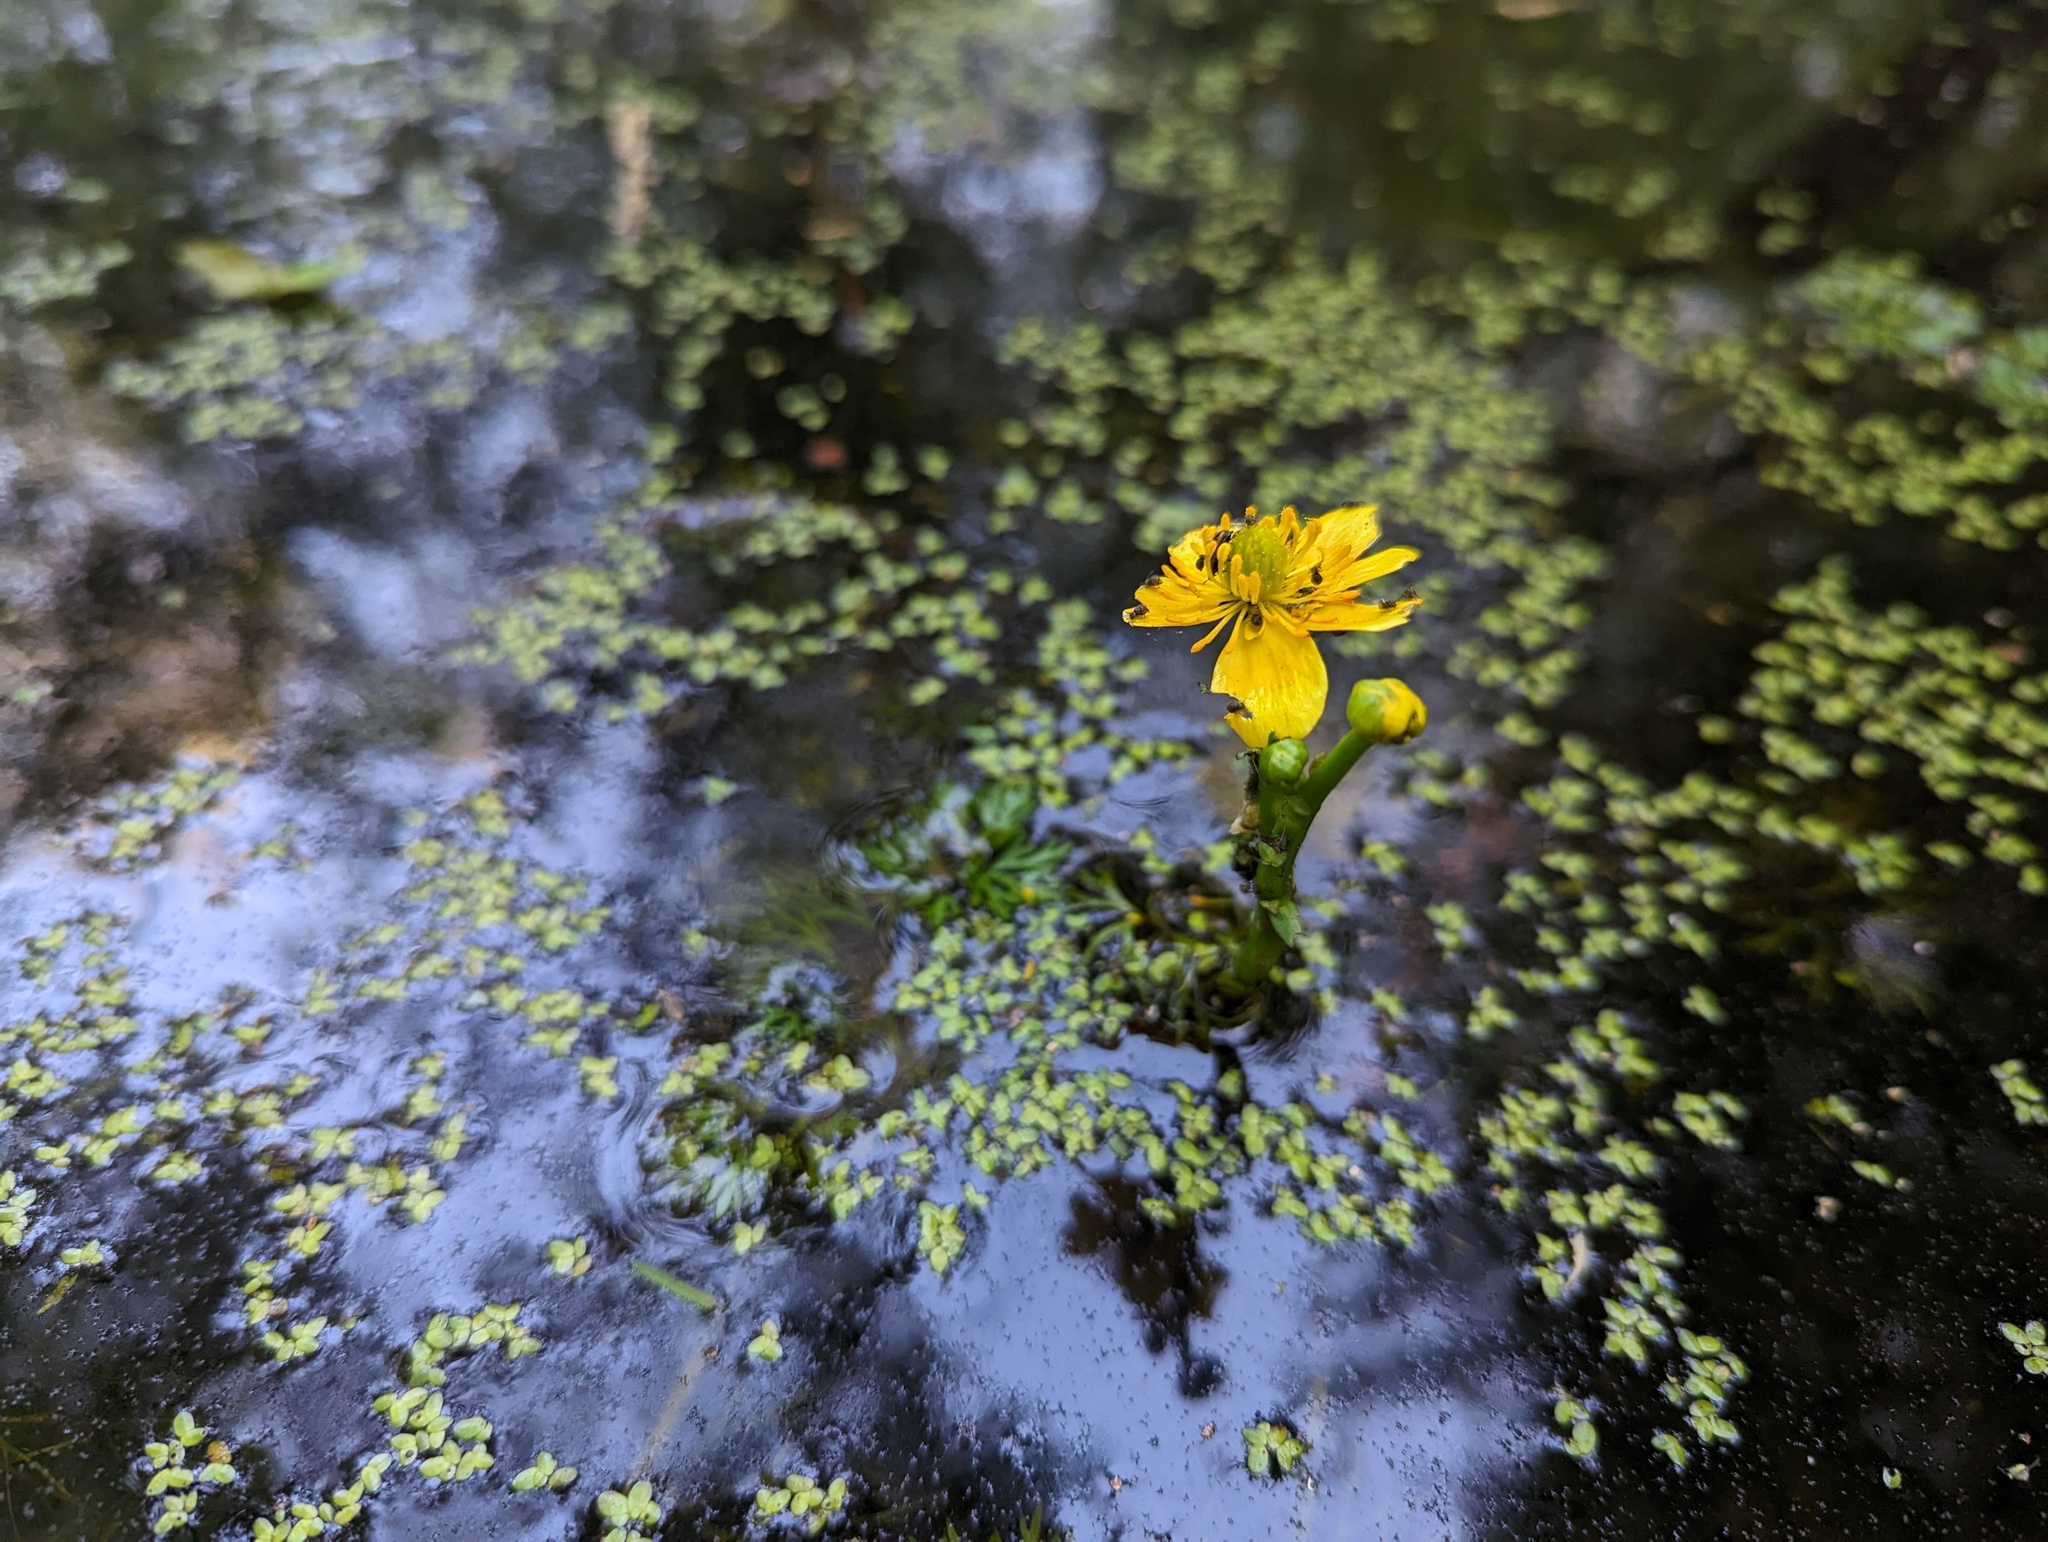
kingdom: Plantae
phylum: Tracheophyta
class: Magnoliopsida
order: Ranunculales
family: Ranunculaceae
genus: Ranunculus
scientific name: Ranunculus flabellaris
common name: Yellow water-crowfoot
